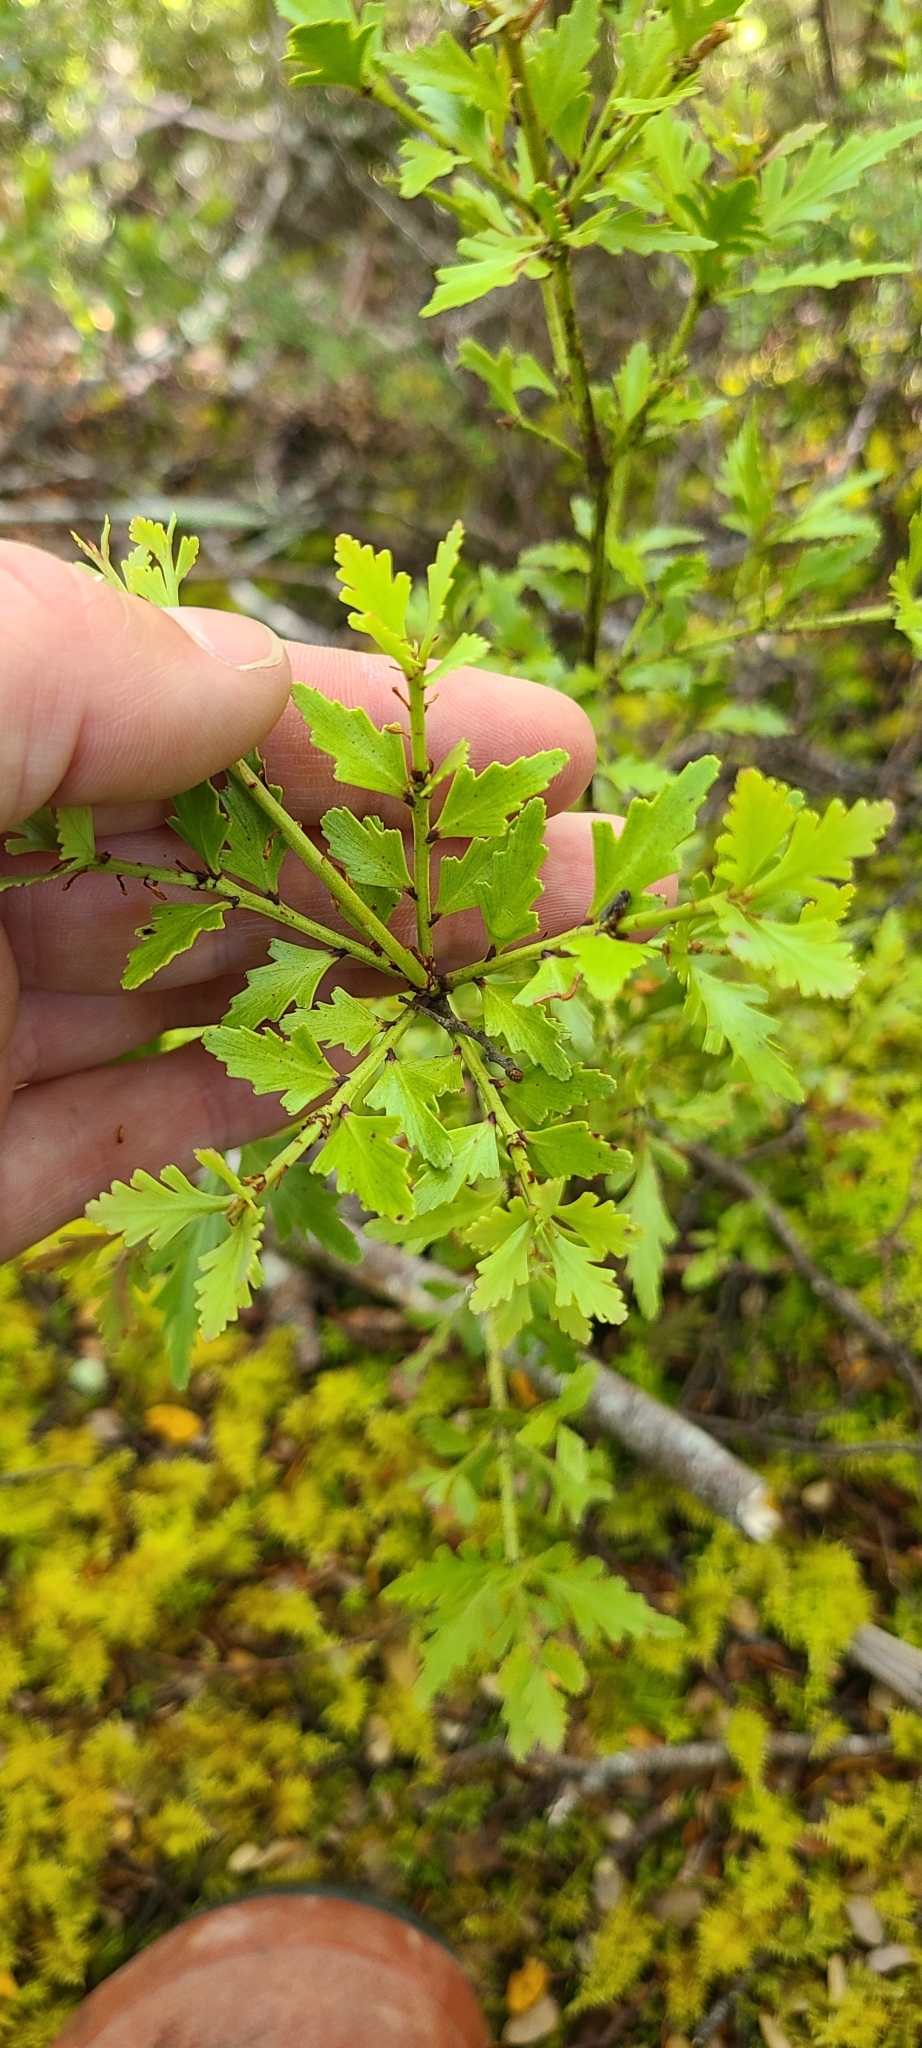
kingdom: Plantae
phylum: Tracheophyta
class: Pinopsida
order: Pinales
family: Phyllocladaceae
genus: Phyllocladus
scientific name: Phyllocladus trichomanoides
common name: Celery pine
